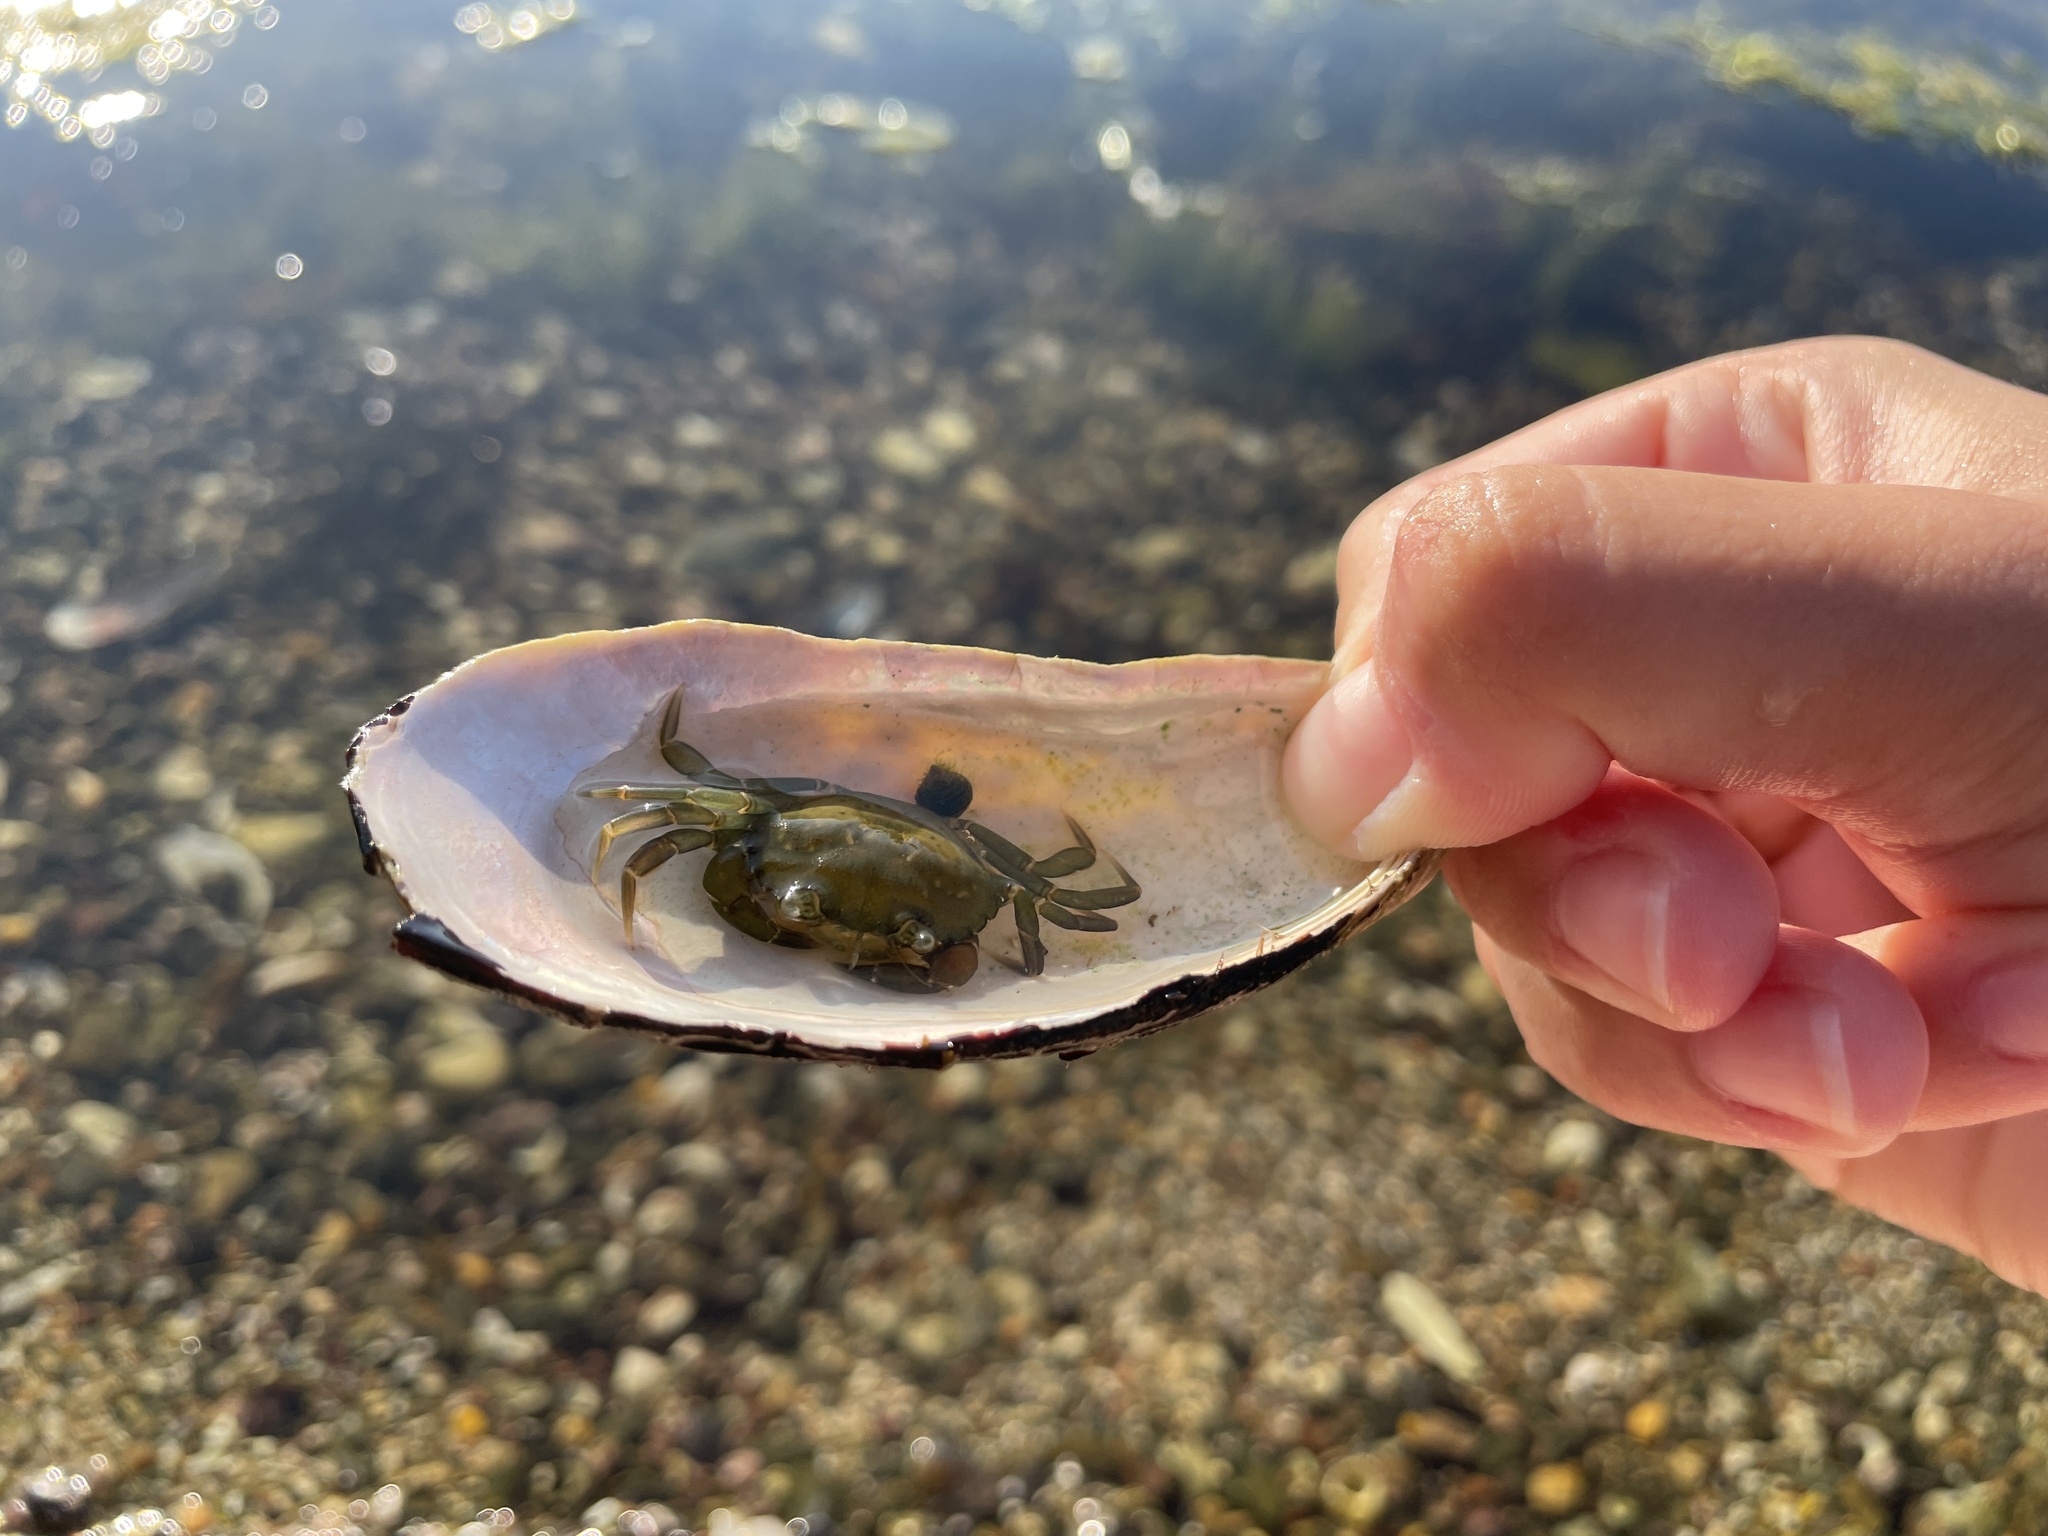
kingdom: Animalia
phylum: Arthropoda
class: Malacostraca
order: Decapoda
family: Carcinidae
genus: Carcinus
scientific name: Carcinus maenas
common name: European green crab
